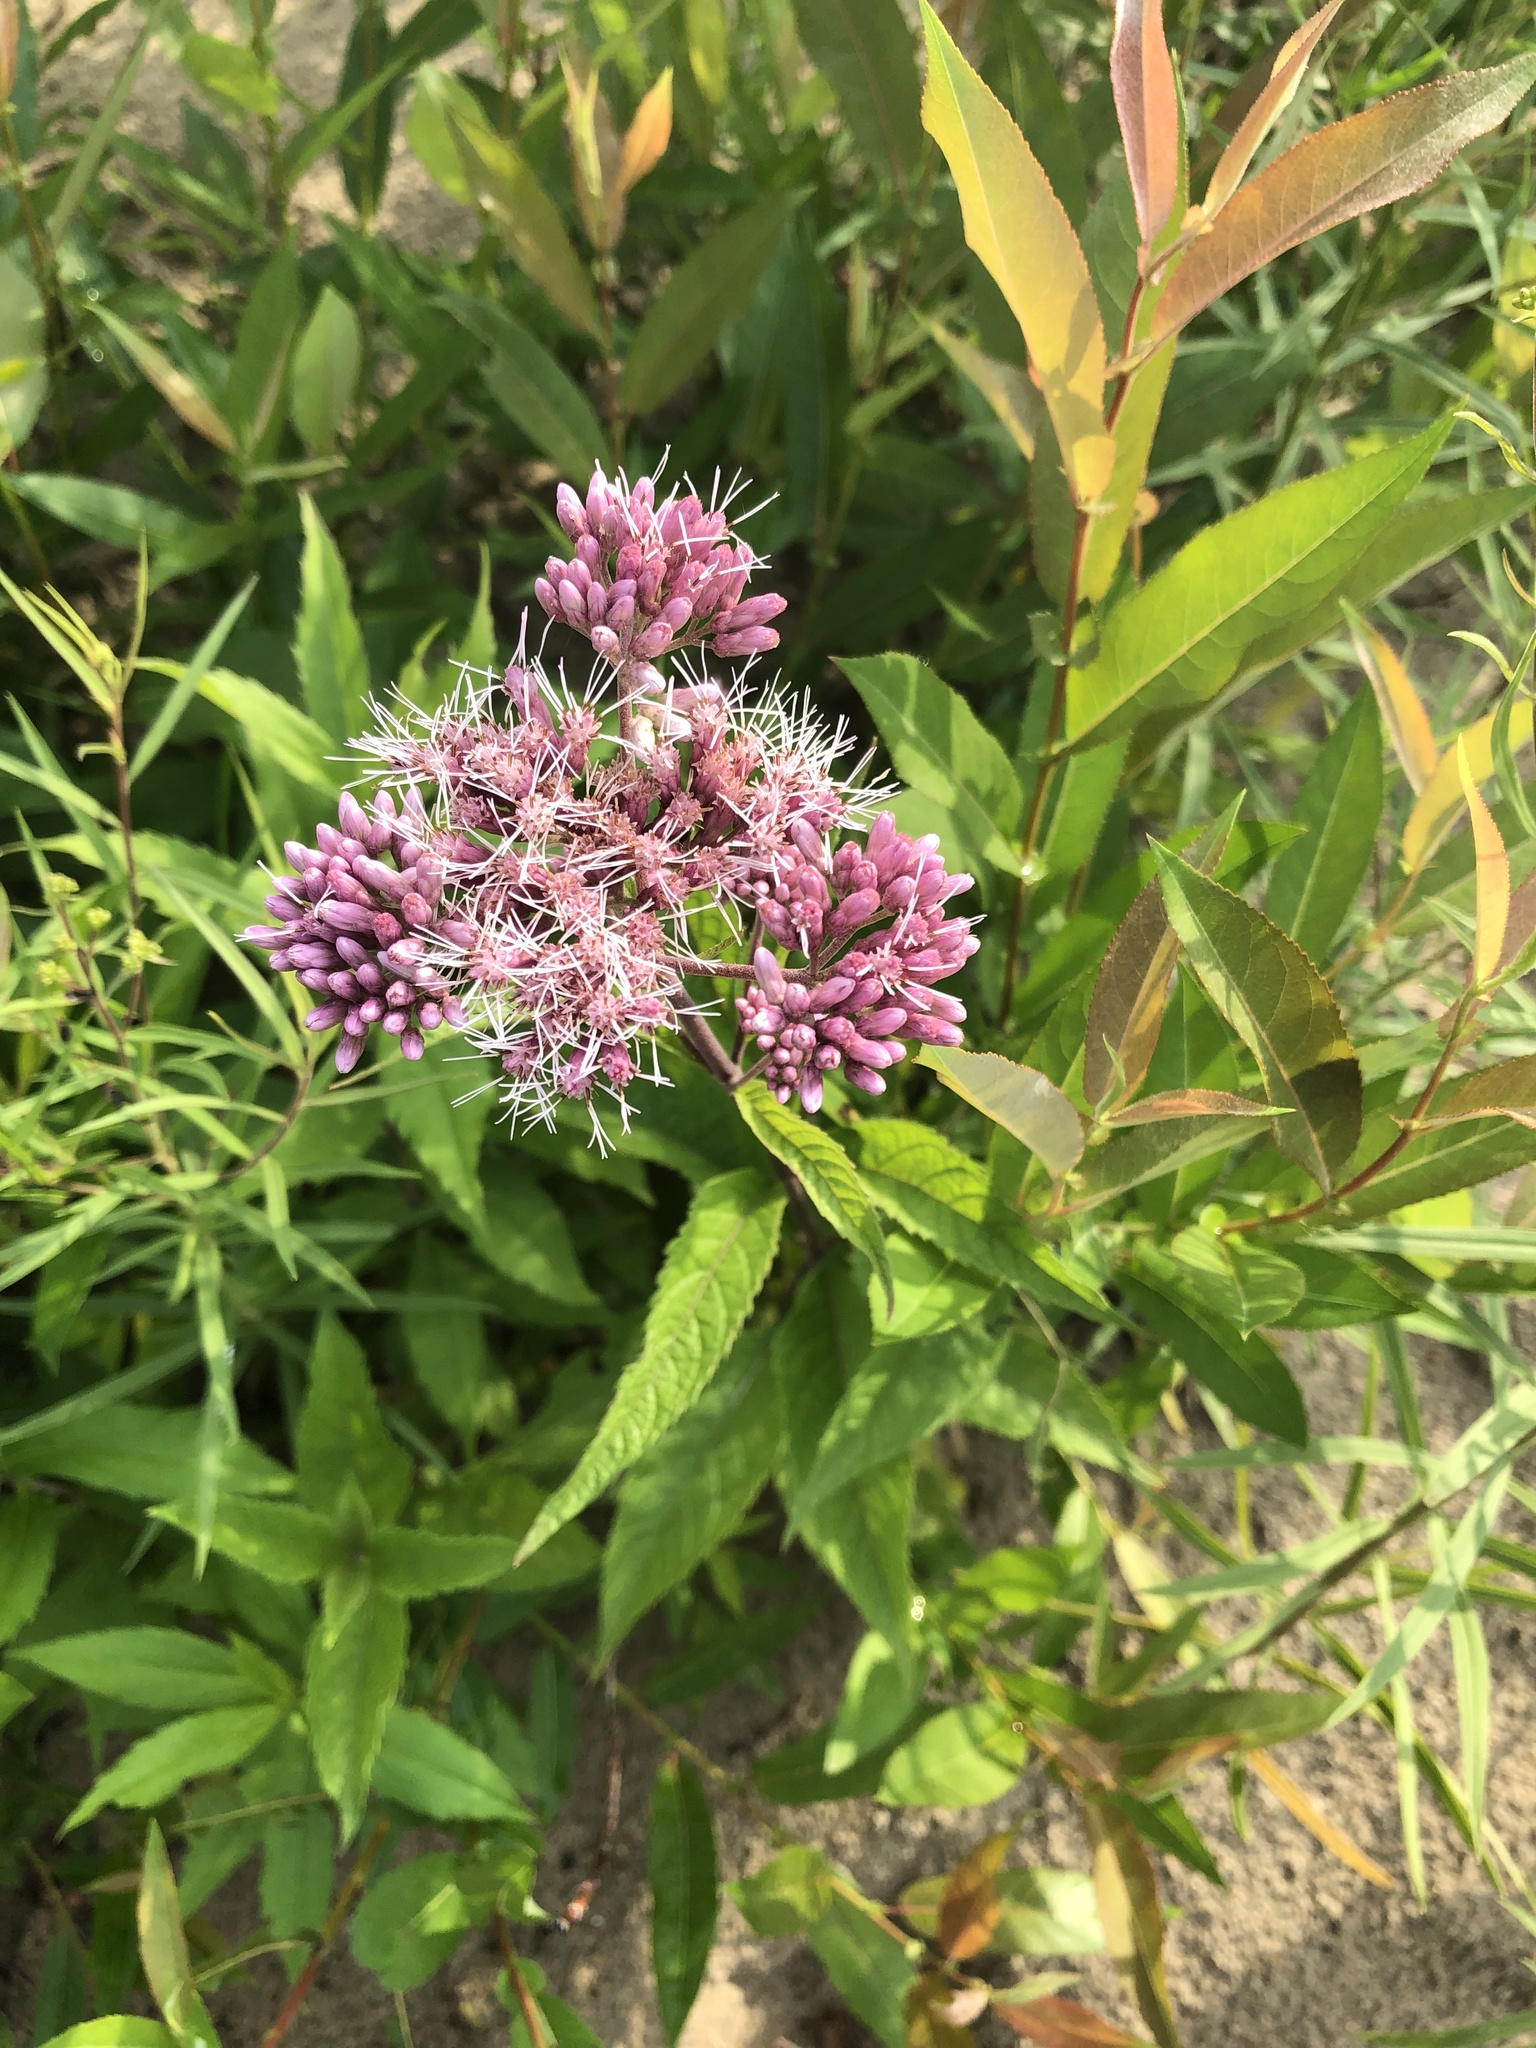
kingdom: Plantae
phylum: Tracheophyta
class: Magnoliopsida
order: Asterales
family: Asteraceae
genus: Eutrochium
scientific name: Eutrochium maculatum
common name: Spotted joe pye weed
